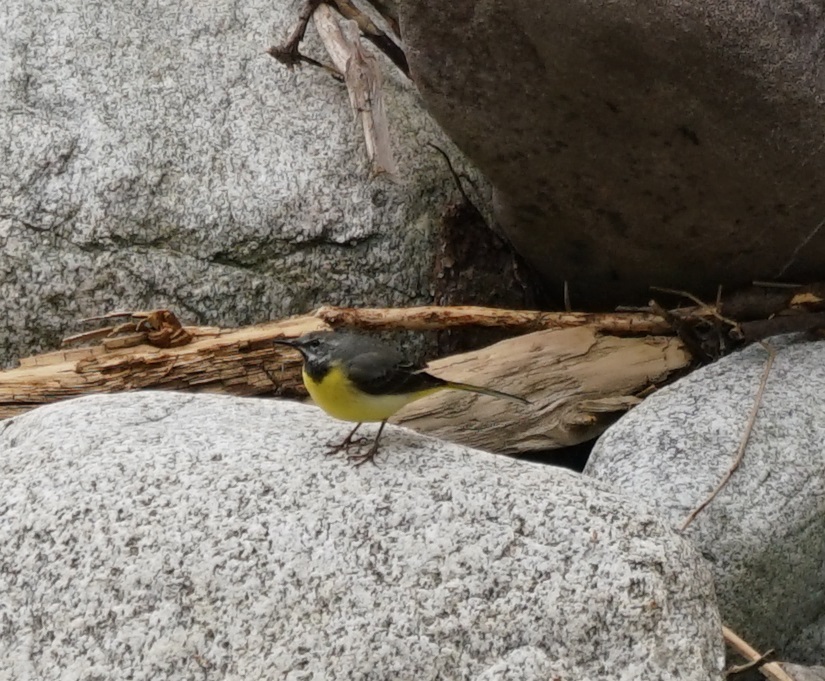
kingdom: Animalia
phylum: Chordata
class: Aves
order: Passeriformes
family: Motacillidae
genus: Motacilla
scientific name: Motacilla cinerea
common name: Grey wagtail
